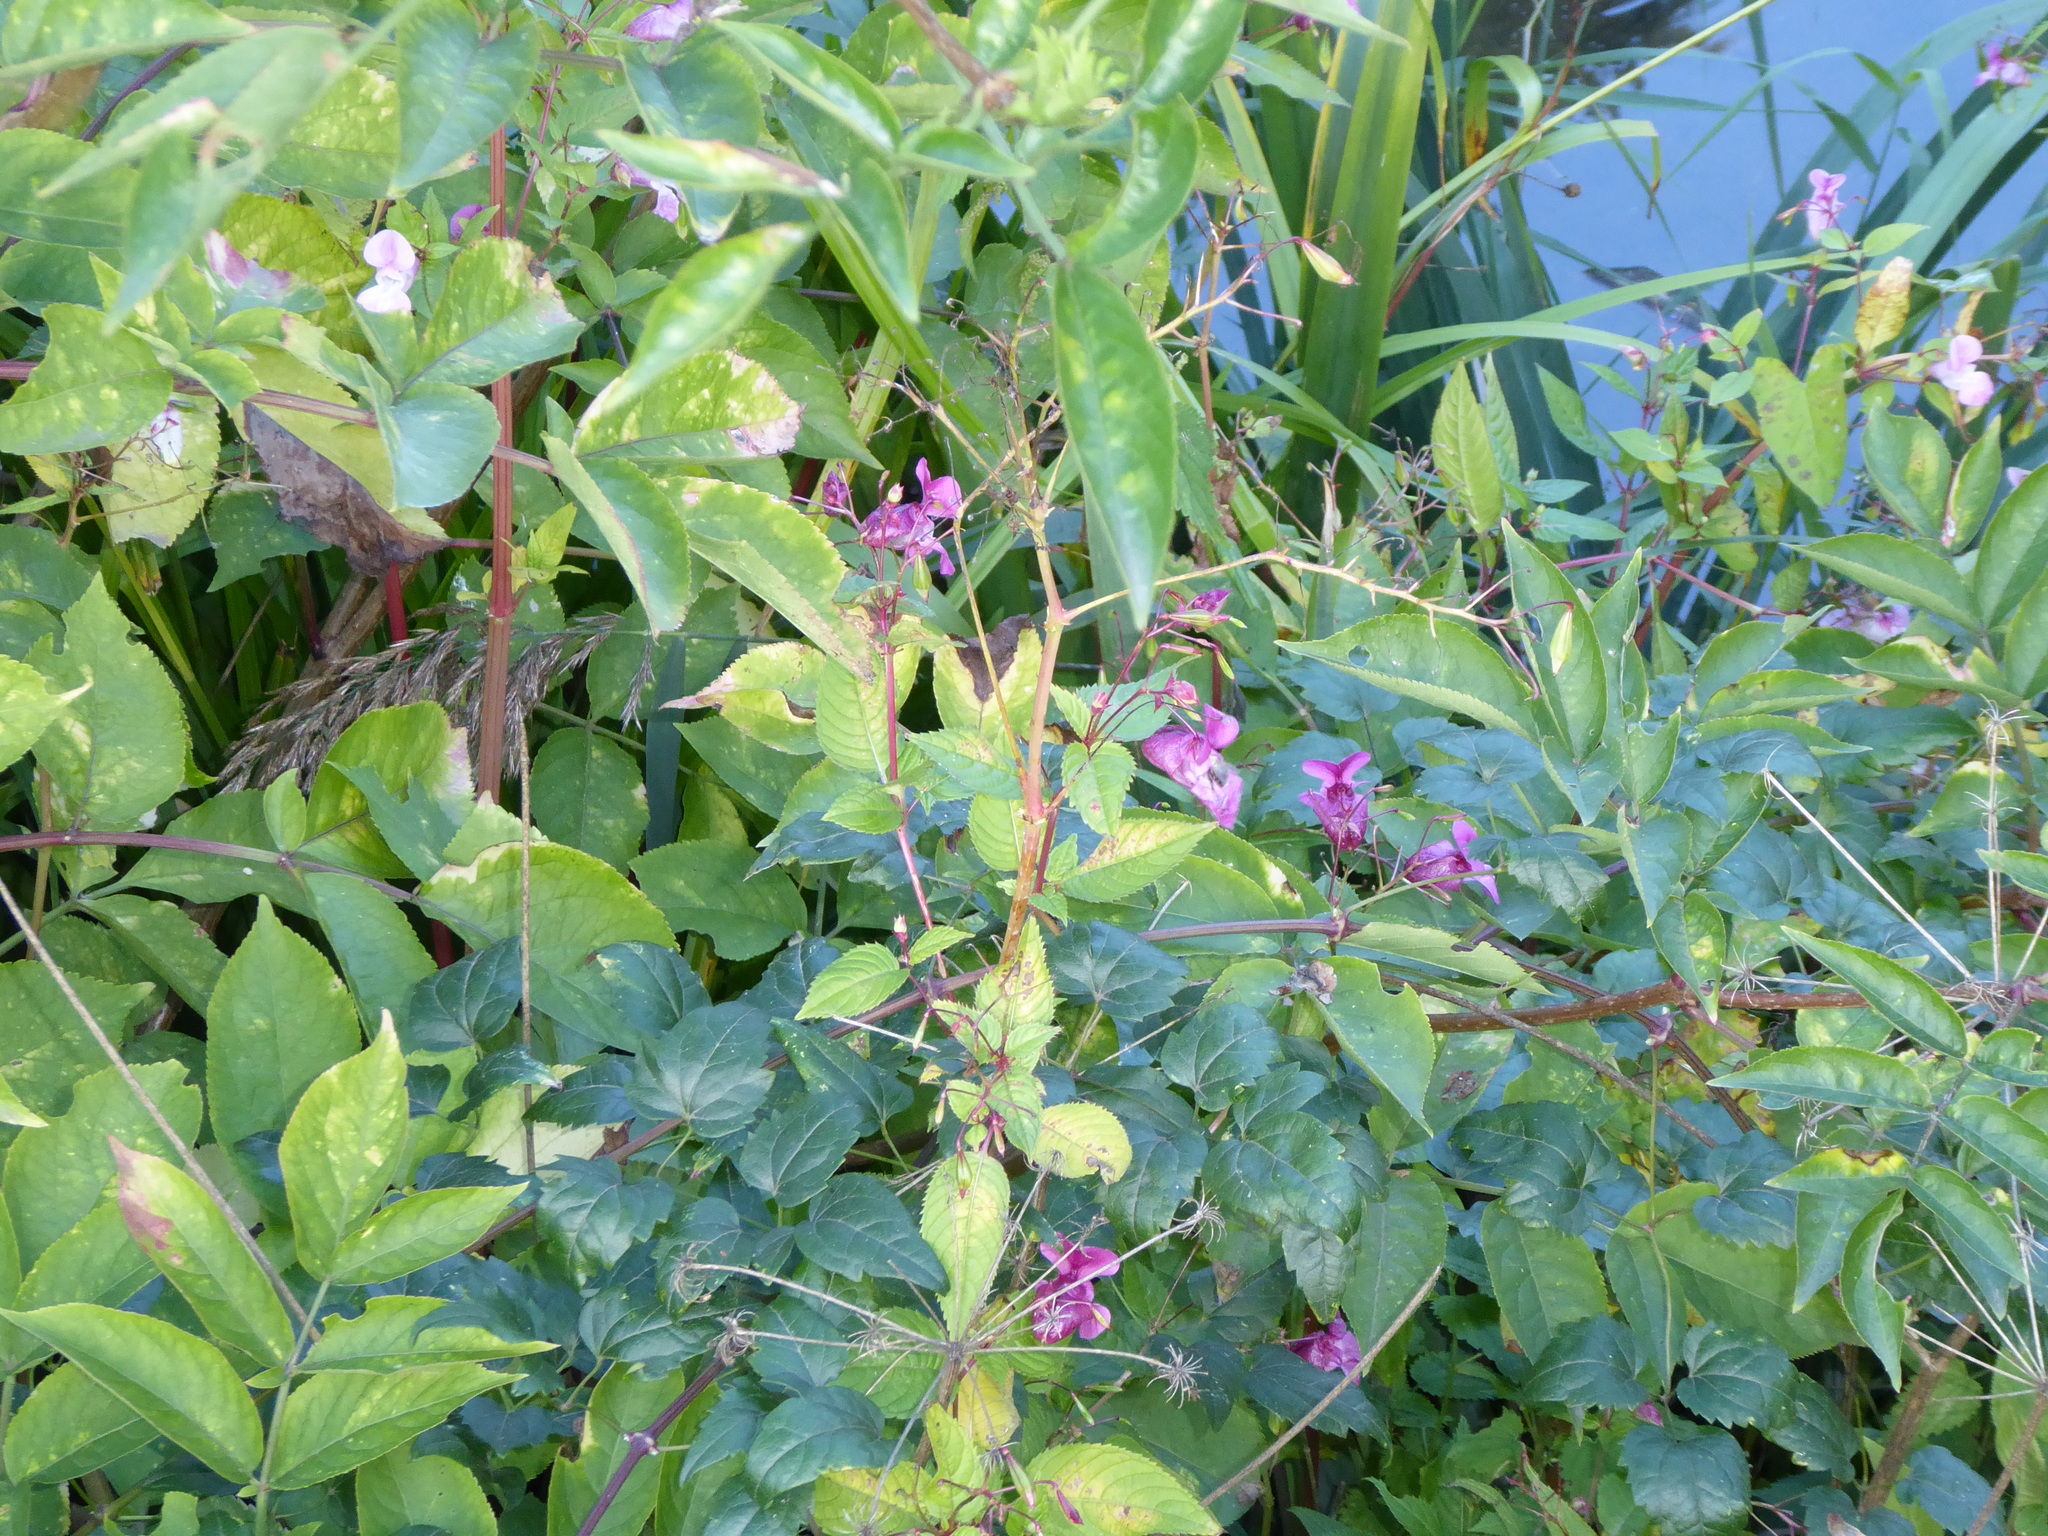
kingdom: Plantae
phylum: Tracheophyta
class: Magnoliopsida
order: Ericales
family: Balsaminaceae
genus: Impatiens
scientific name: Impatiens glandulifera
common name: Himalayan balsam
